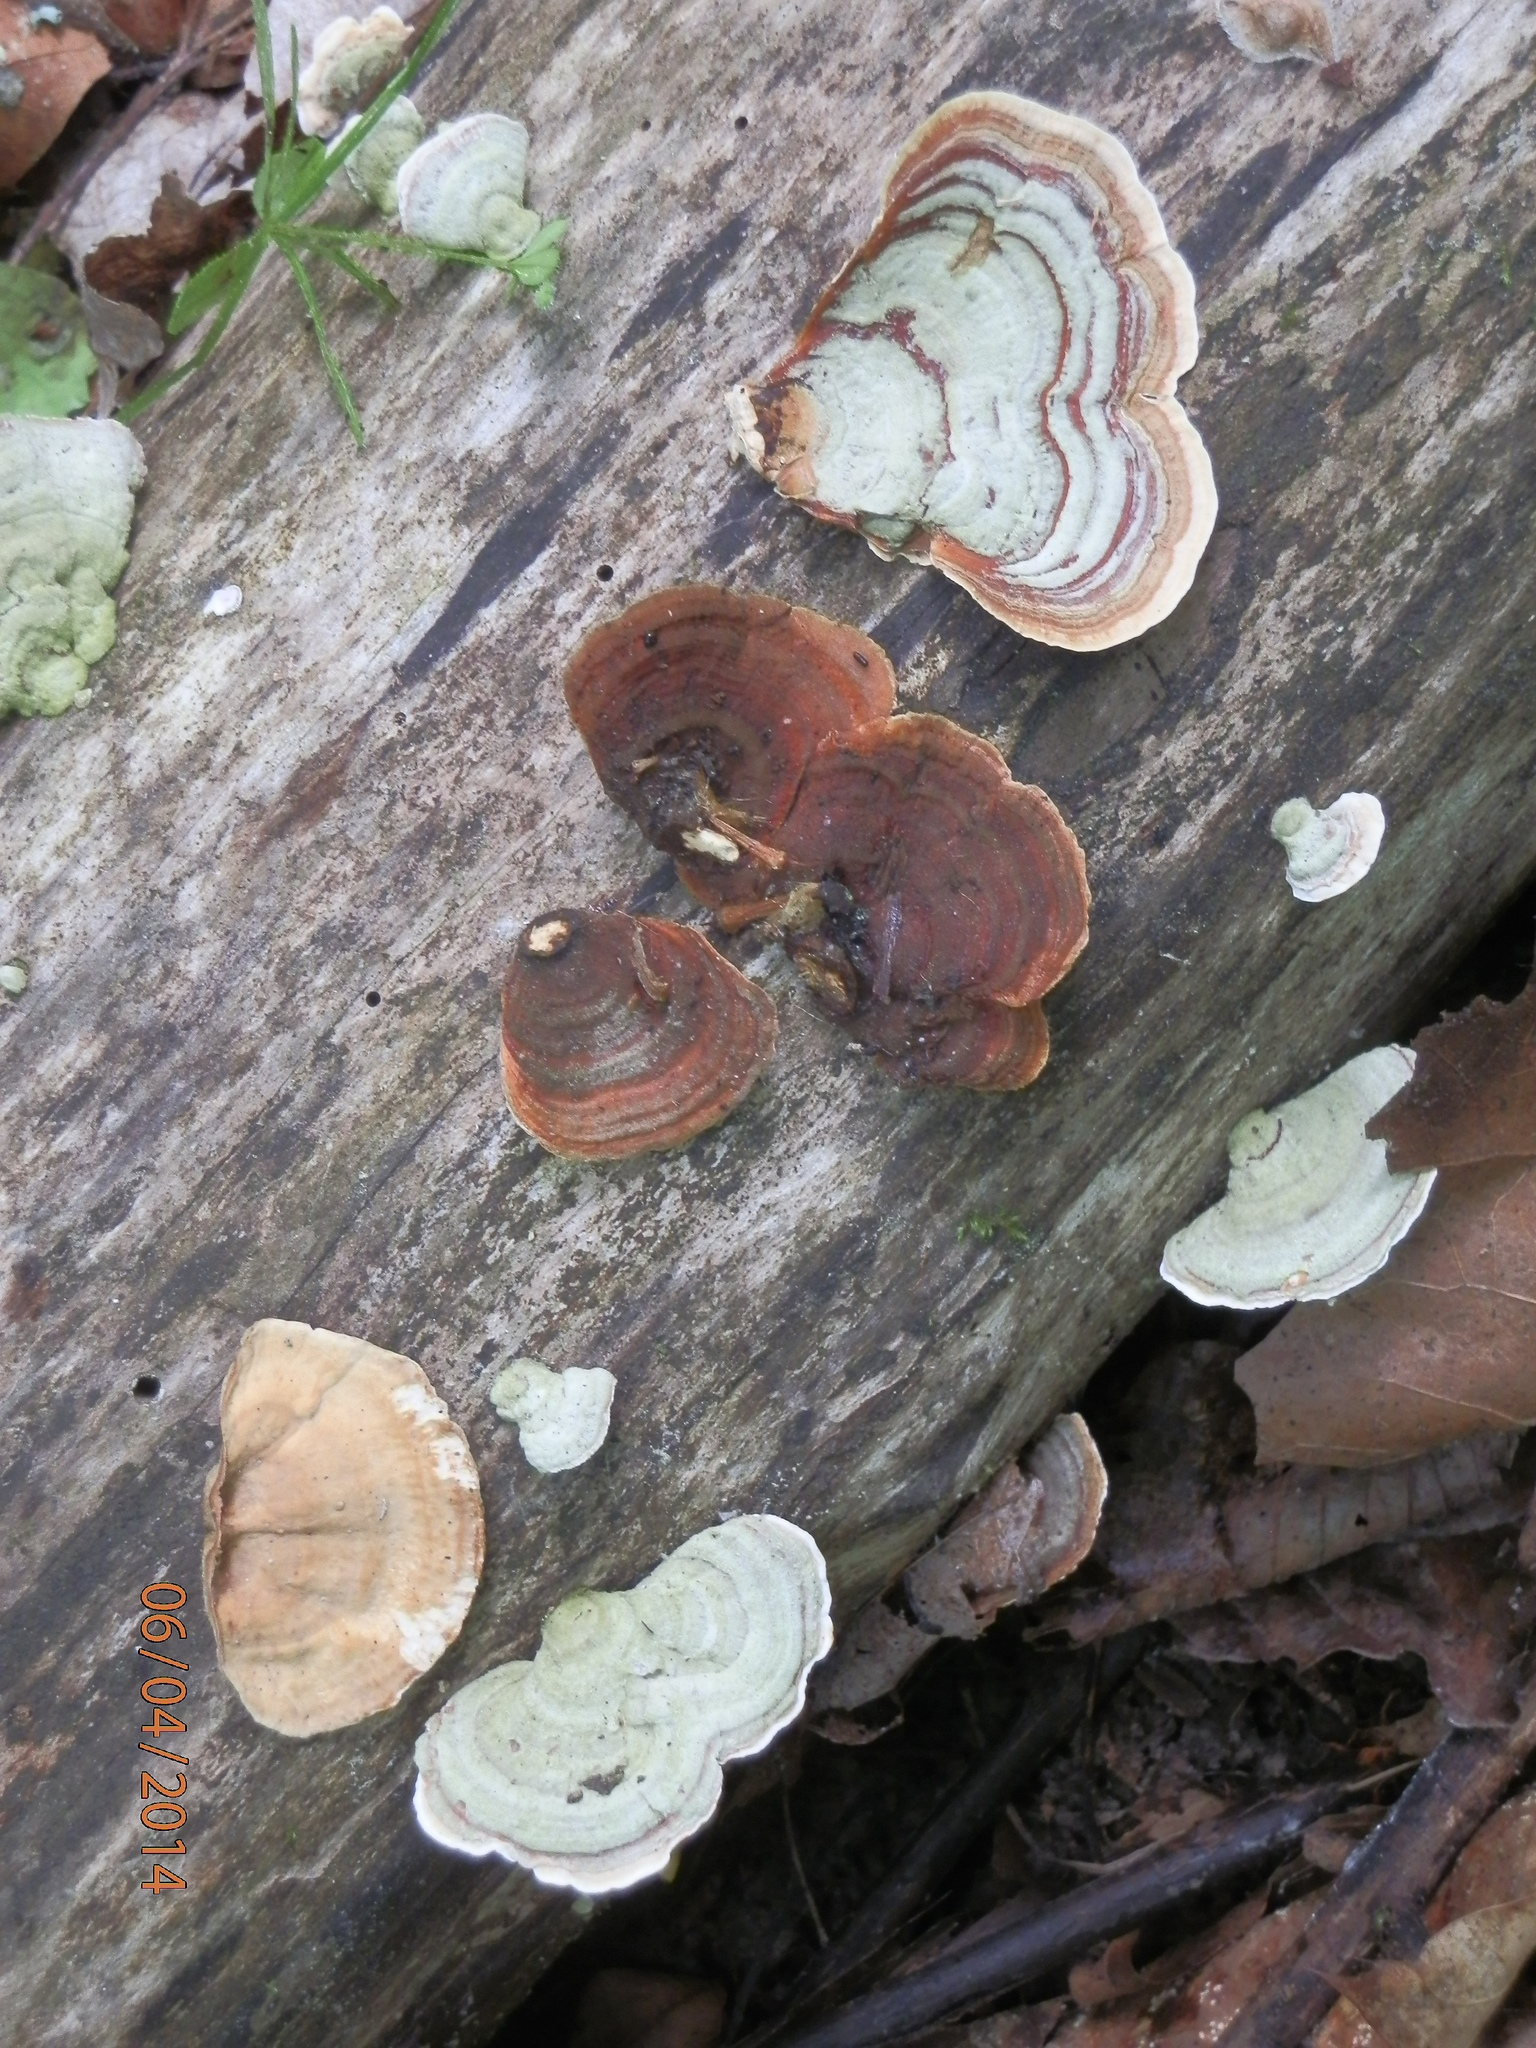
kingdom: Fungi
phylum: Basidiomycota
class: Agaricomycetes
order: Russulales
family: Stereaceae
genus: Stereum
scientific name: Stereum ostrea
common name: False turkeytail
